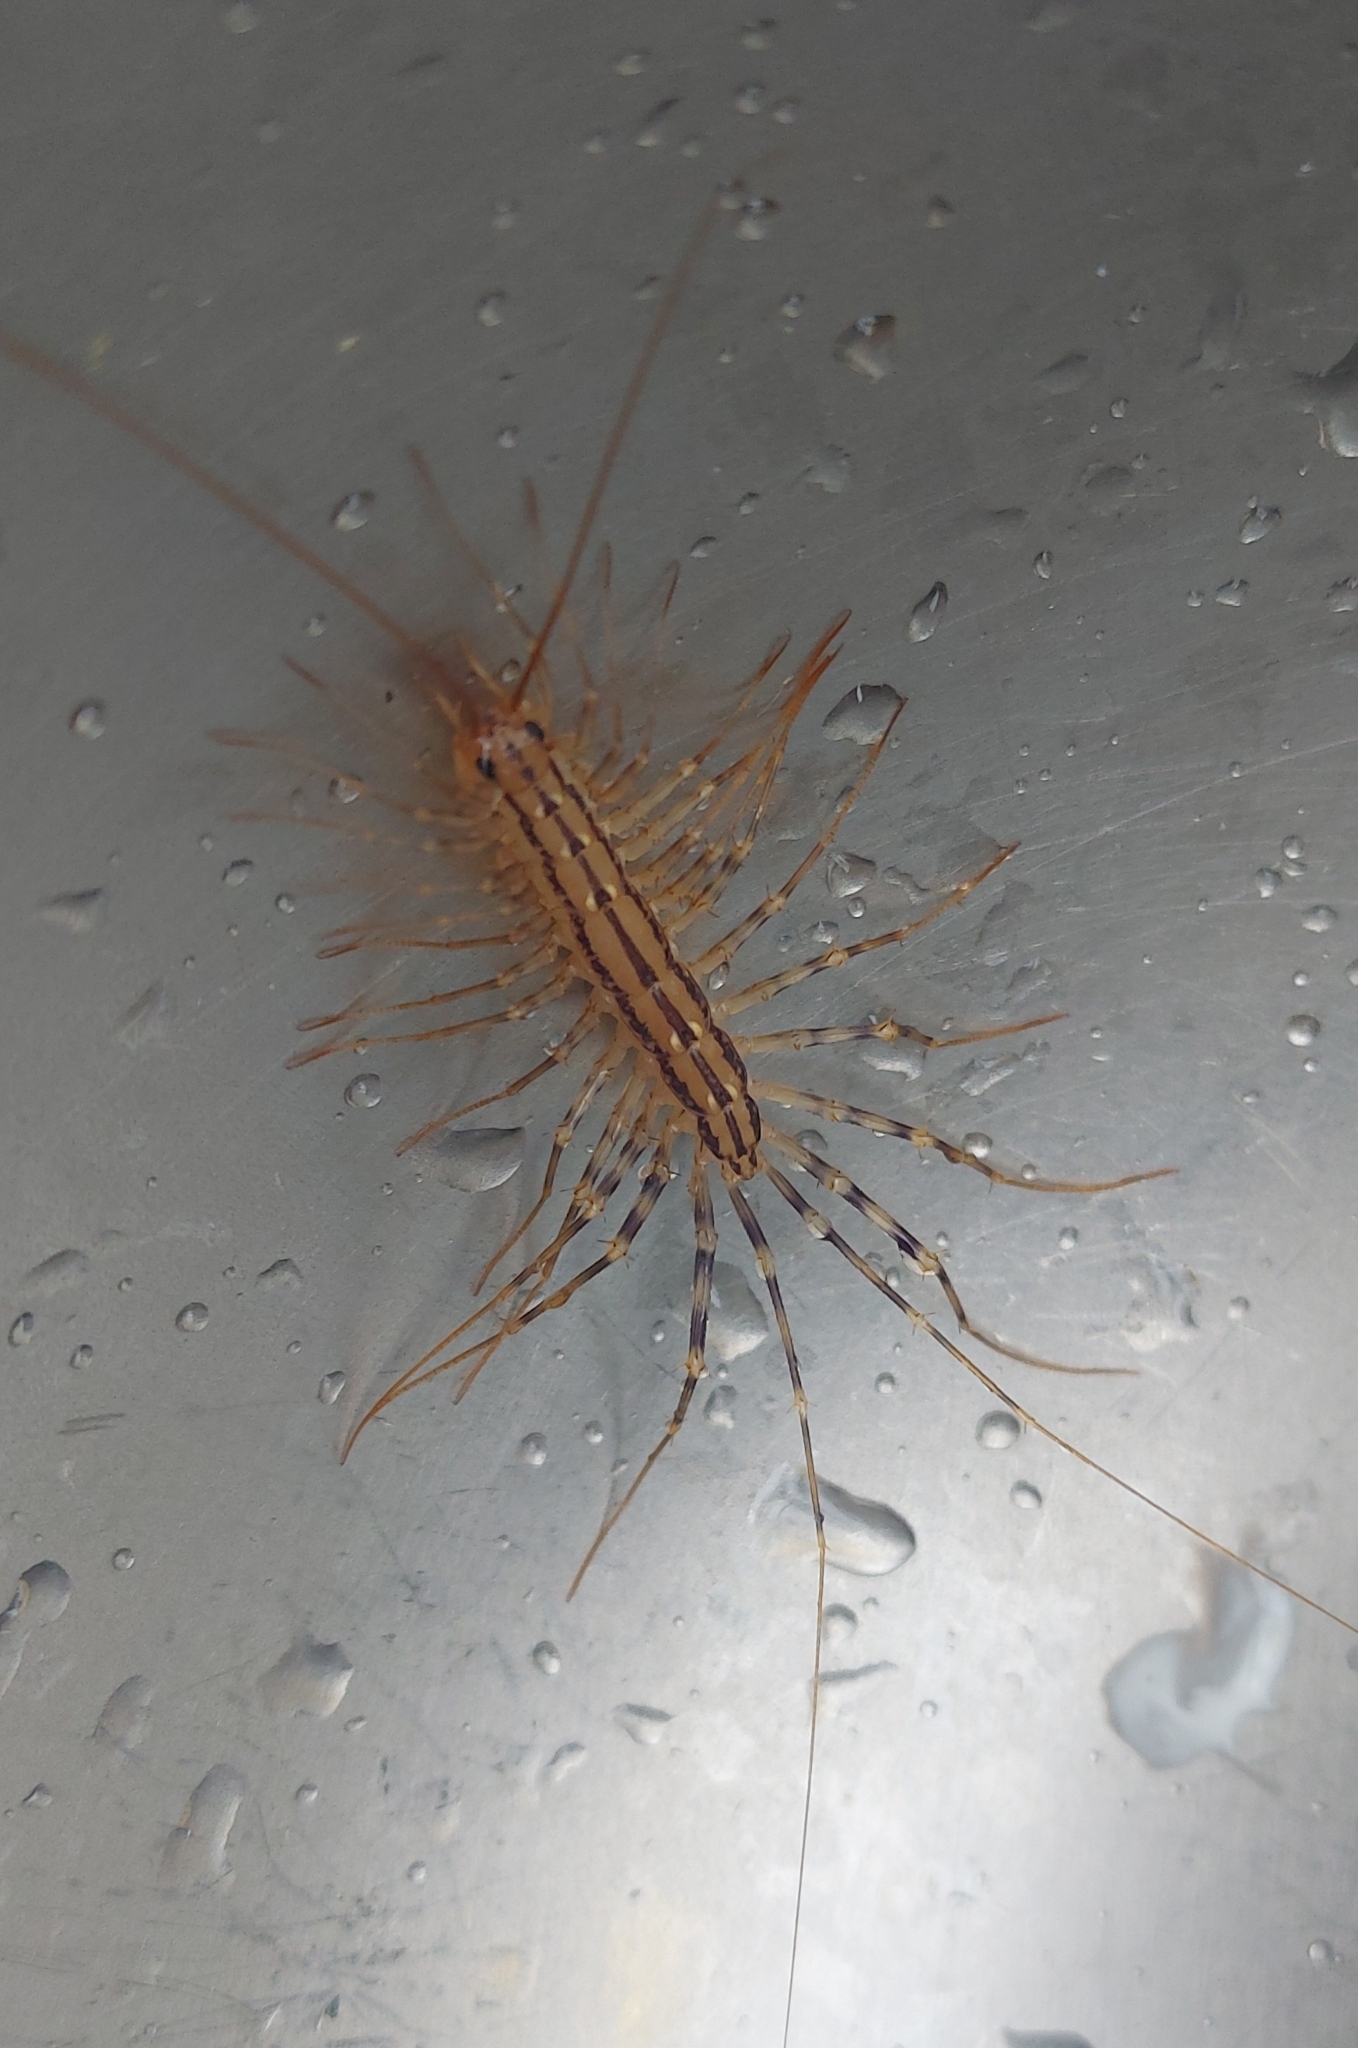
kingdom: Animalia
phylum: Arthropoda
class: Chilopoda
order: Scutigeromorpha
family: Scutigeridae
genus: Scutigera
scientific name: Scutigera coleoptrata
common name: House centipede
